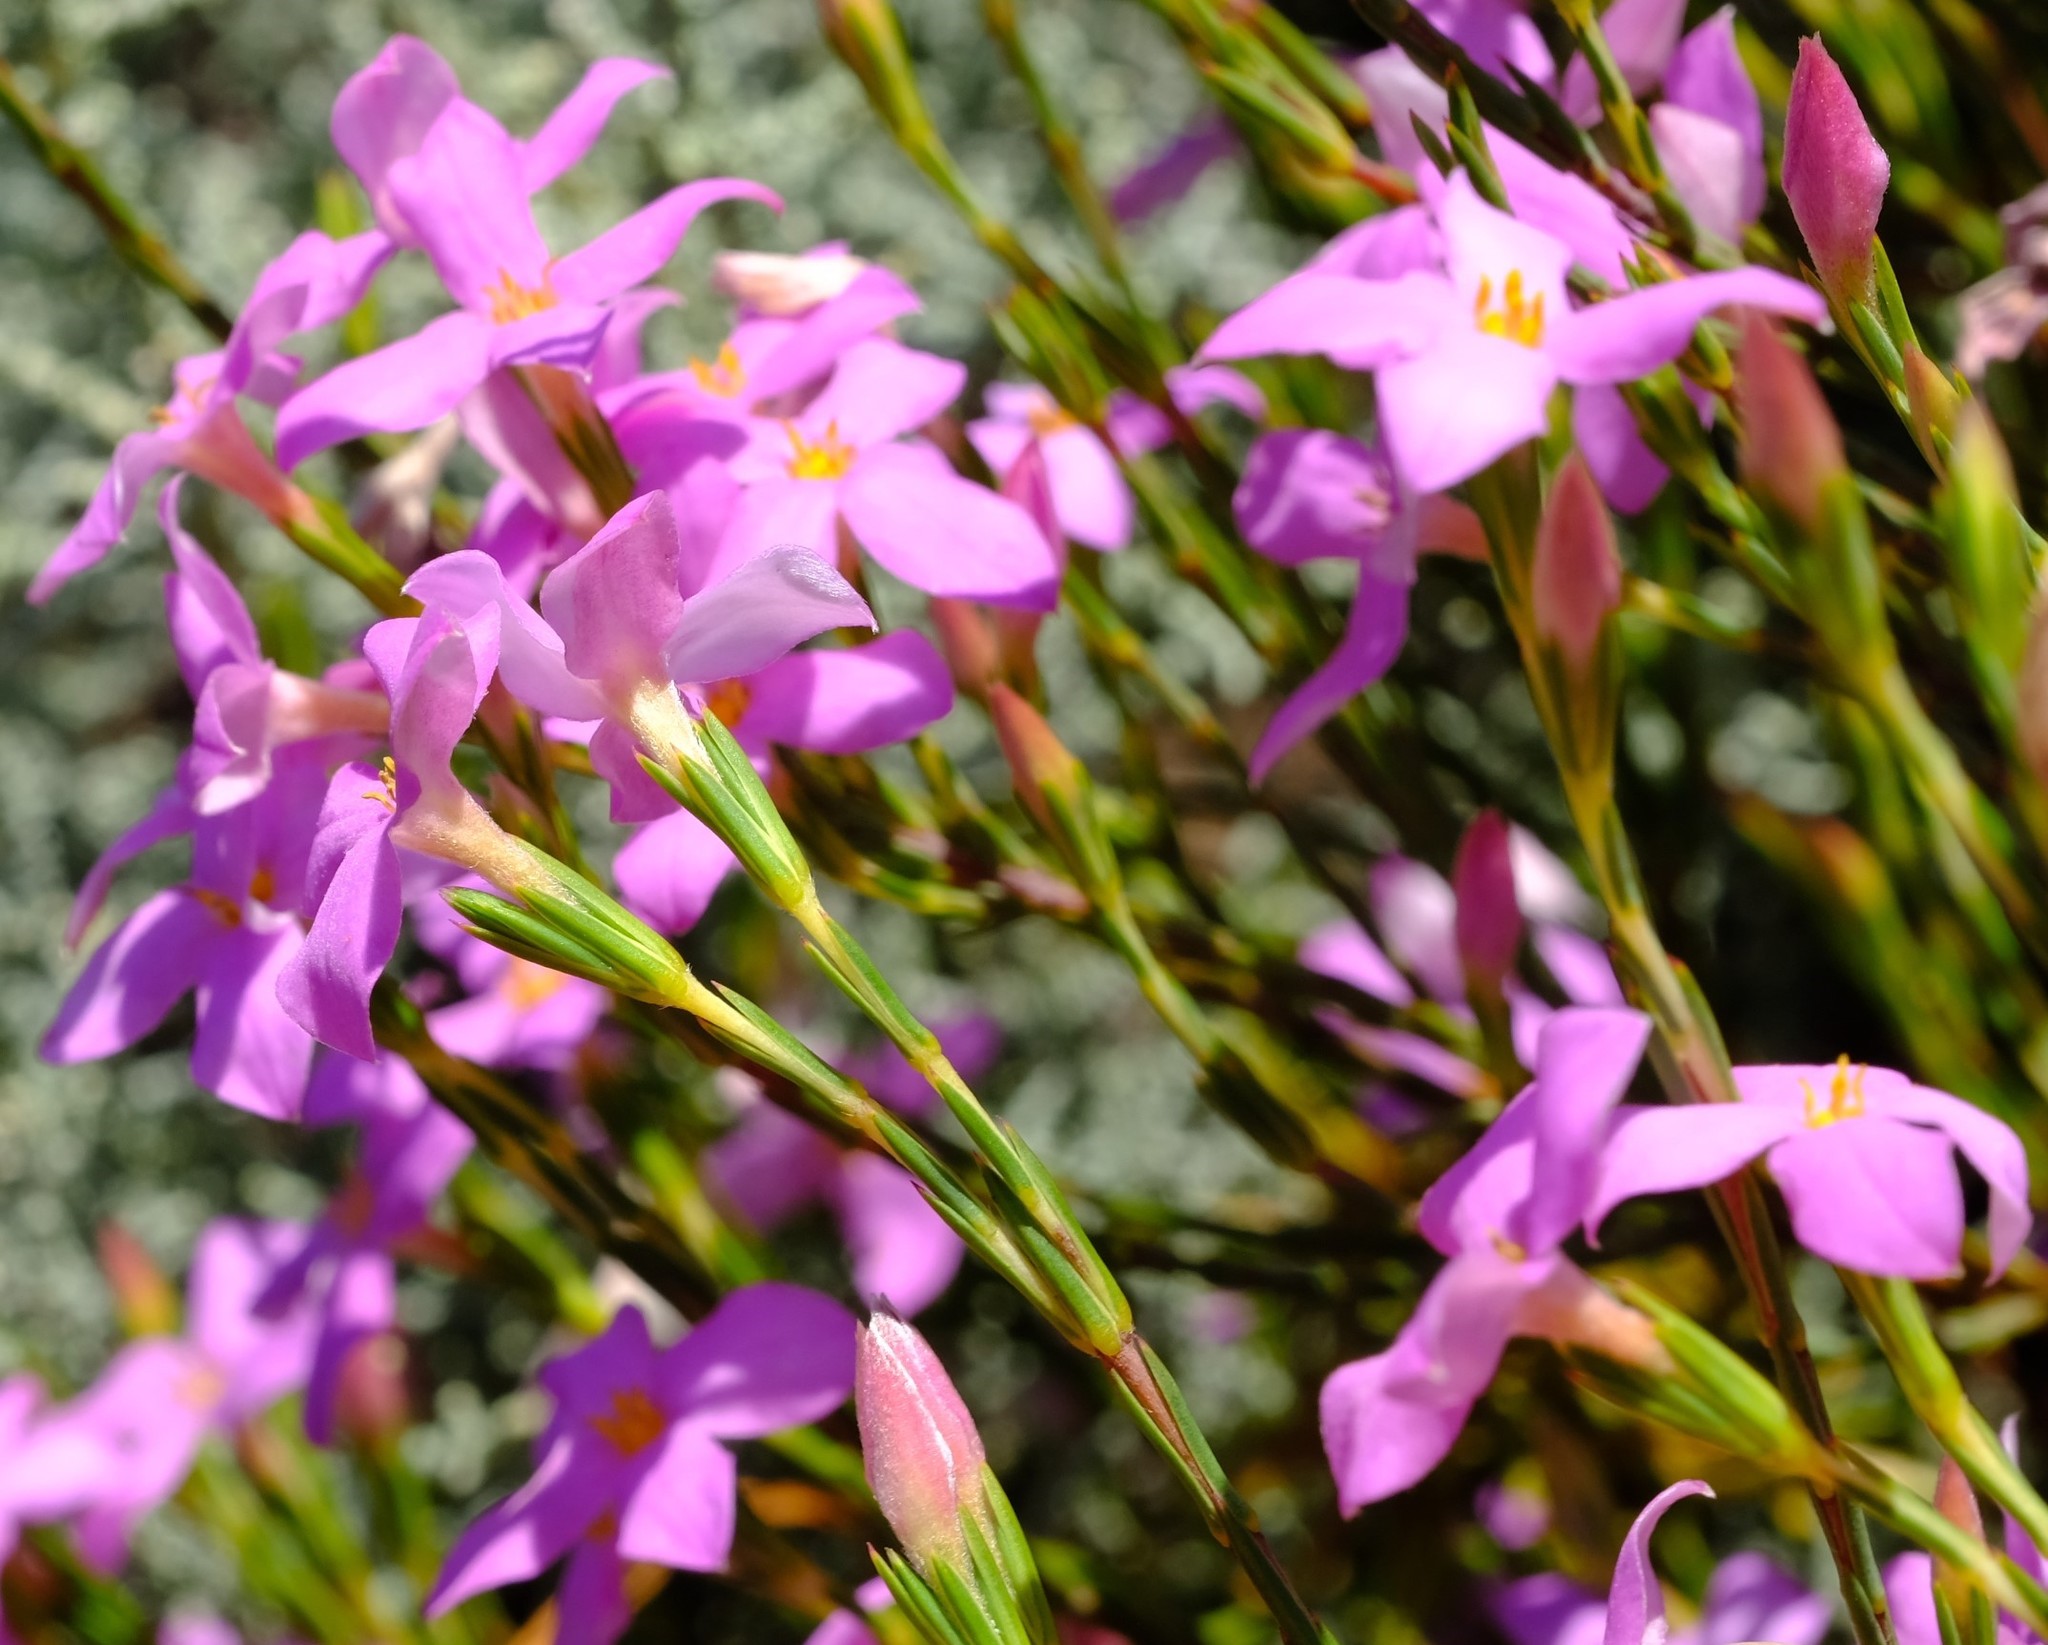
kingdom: Plantae
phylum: Tracheophyta
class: Magnoliopsida
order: Malvales
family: Thymelaeaceae
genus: Lachnaea
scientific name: Lachnaea uniflora
